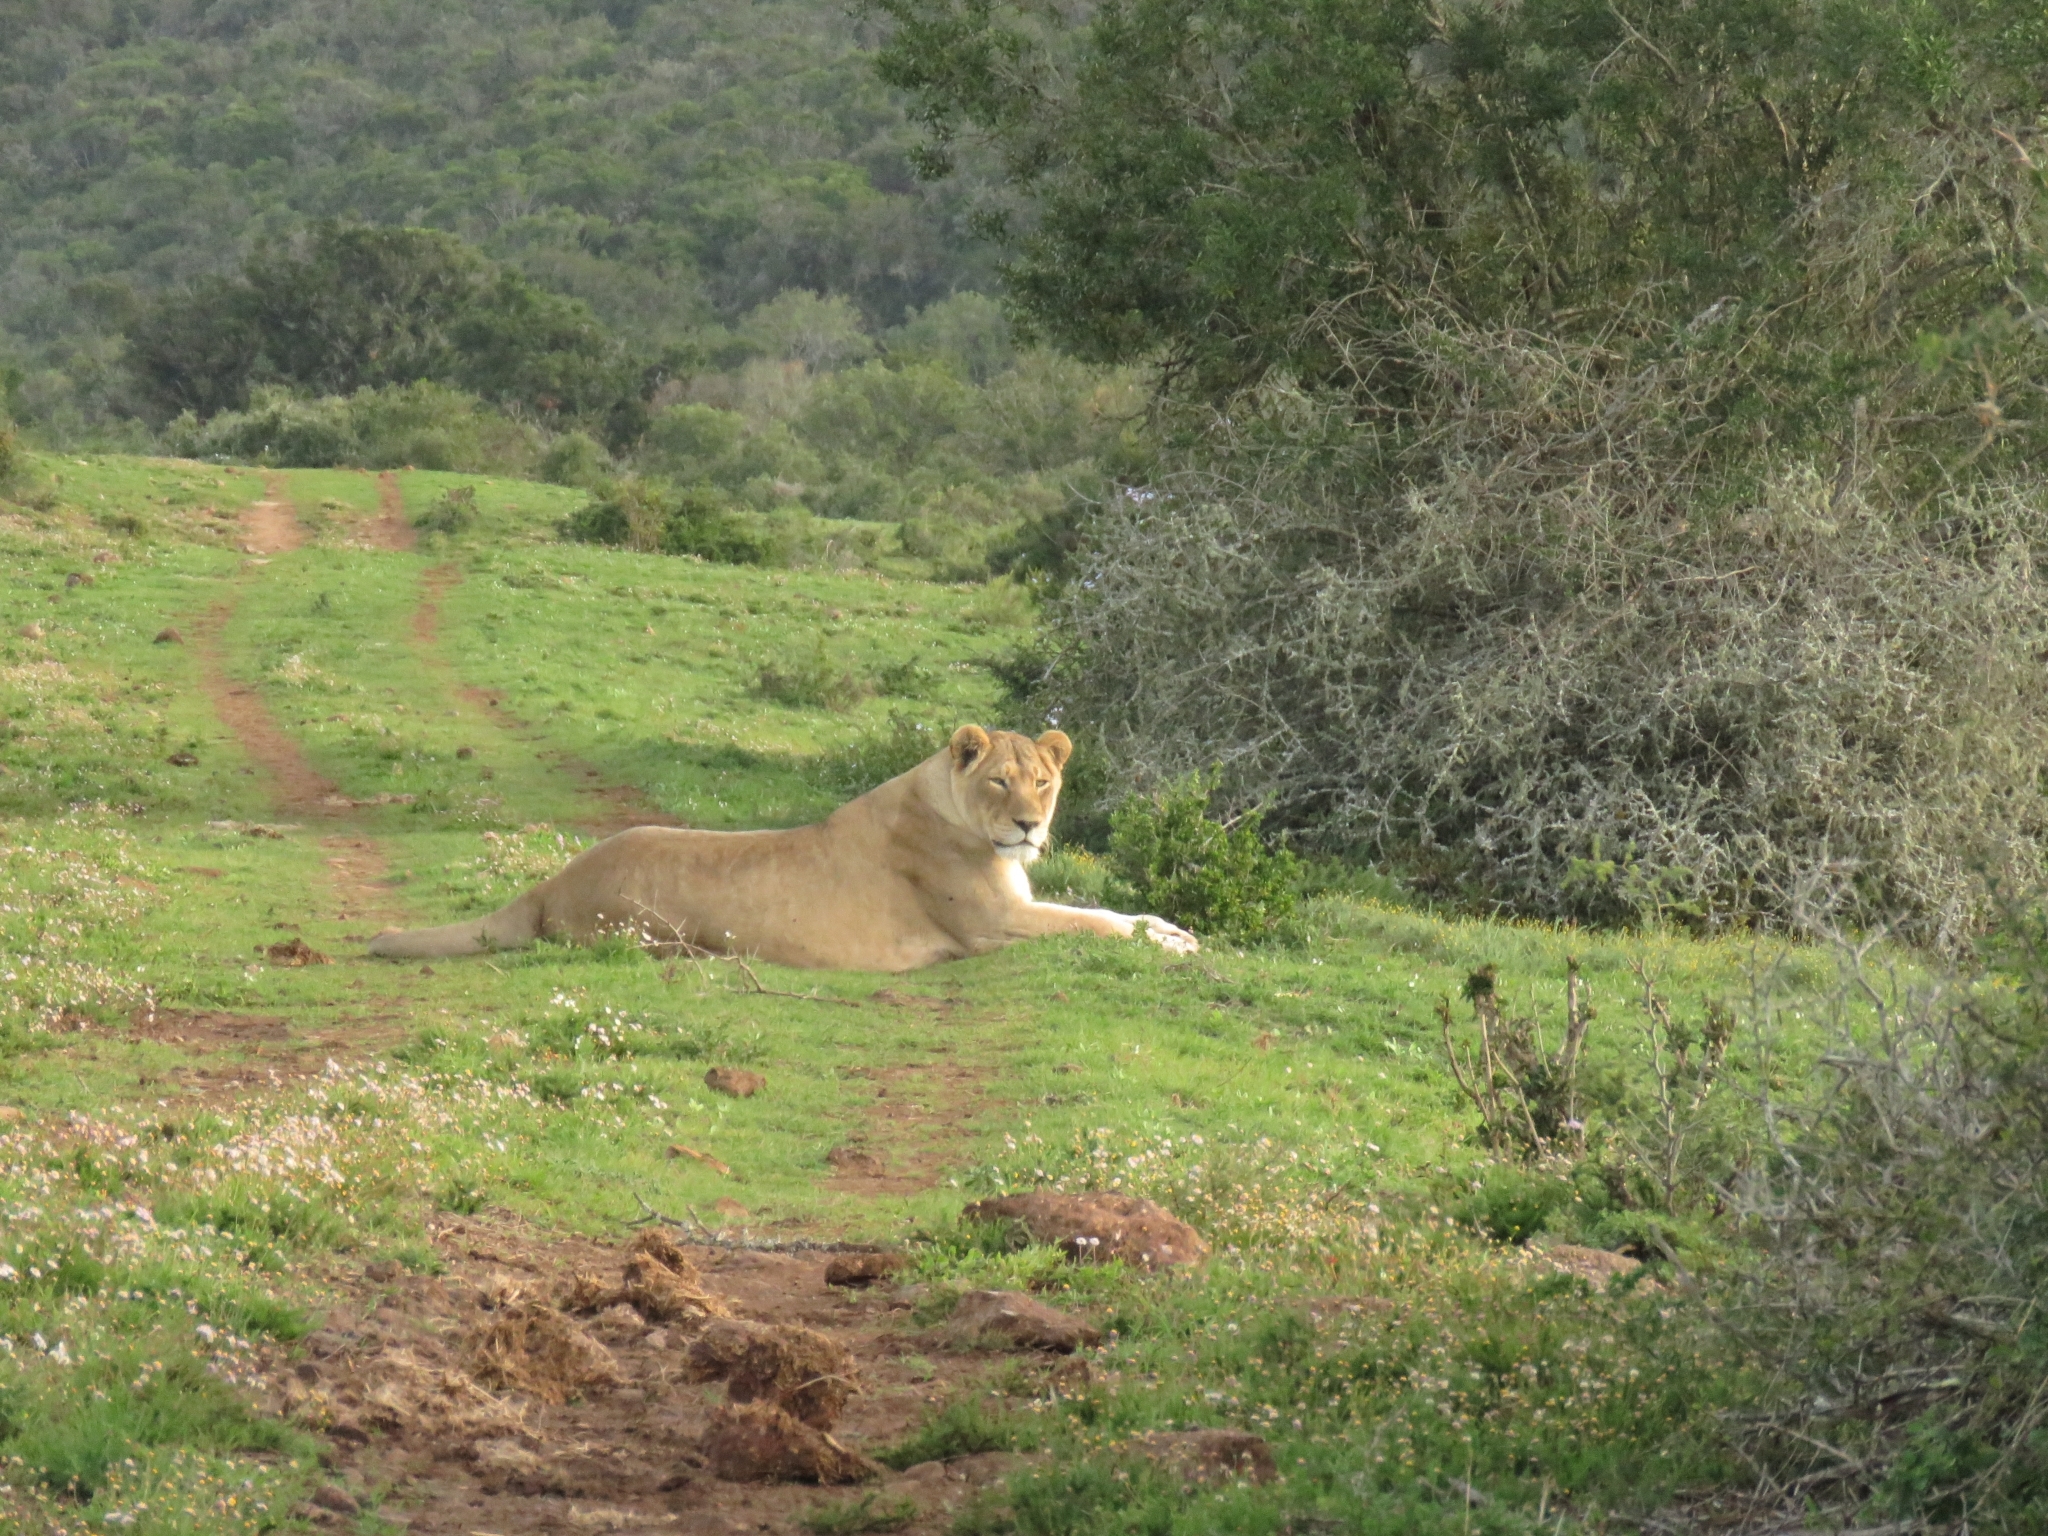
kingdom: Animalia
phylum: Chordata
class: Mammalia
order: Carnivora
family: Felidae
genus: Panthera
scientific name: Panthera leo
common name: Lion
